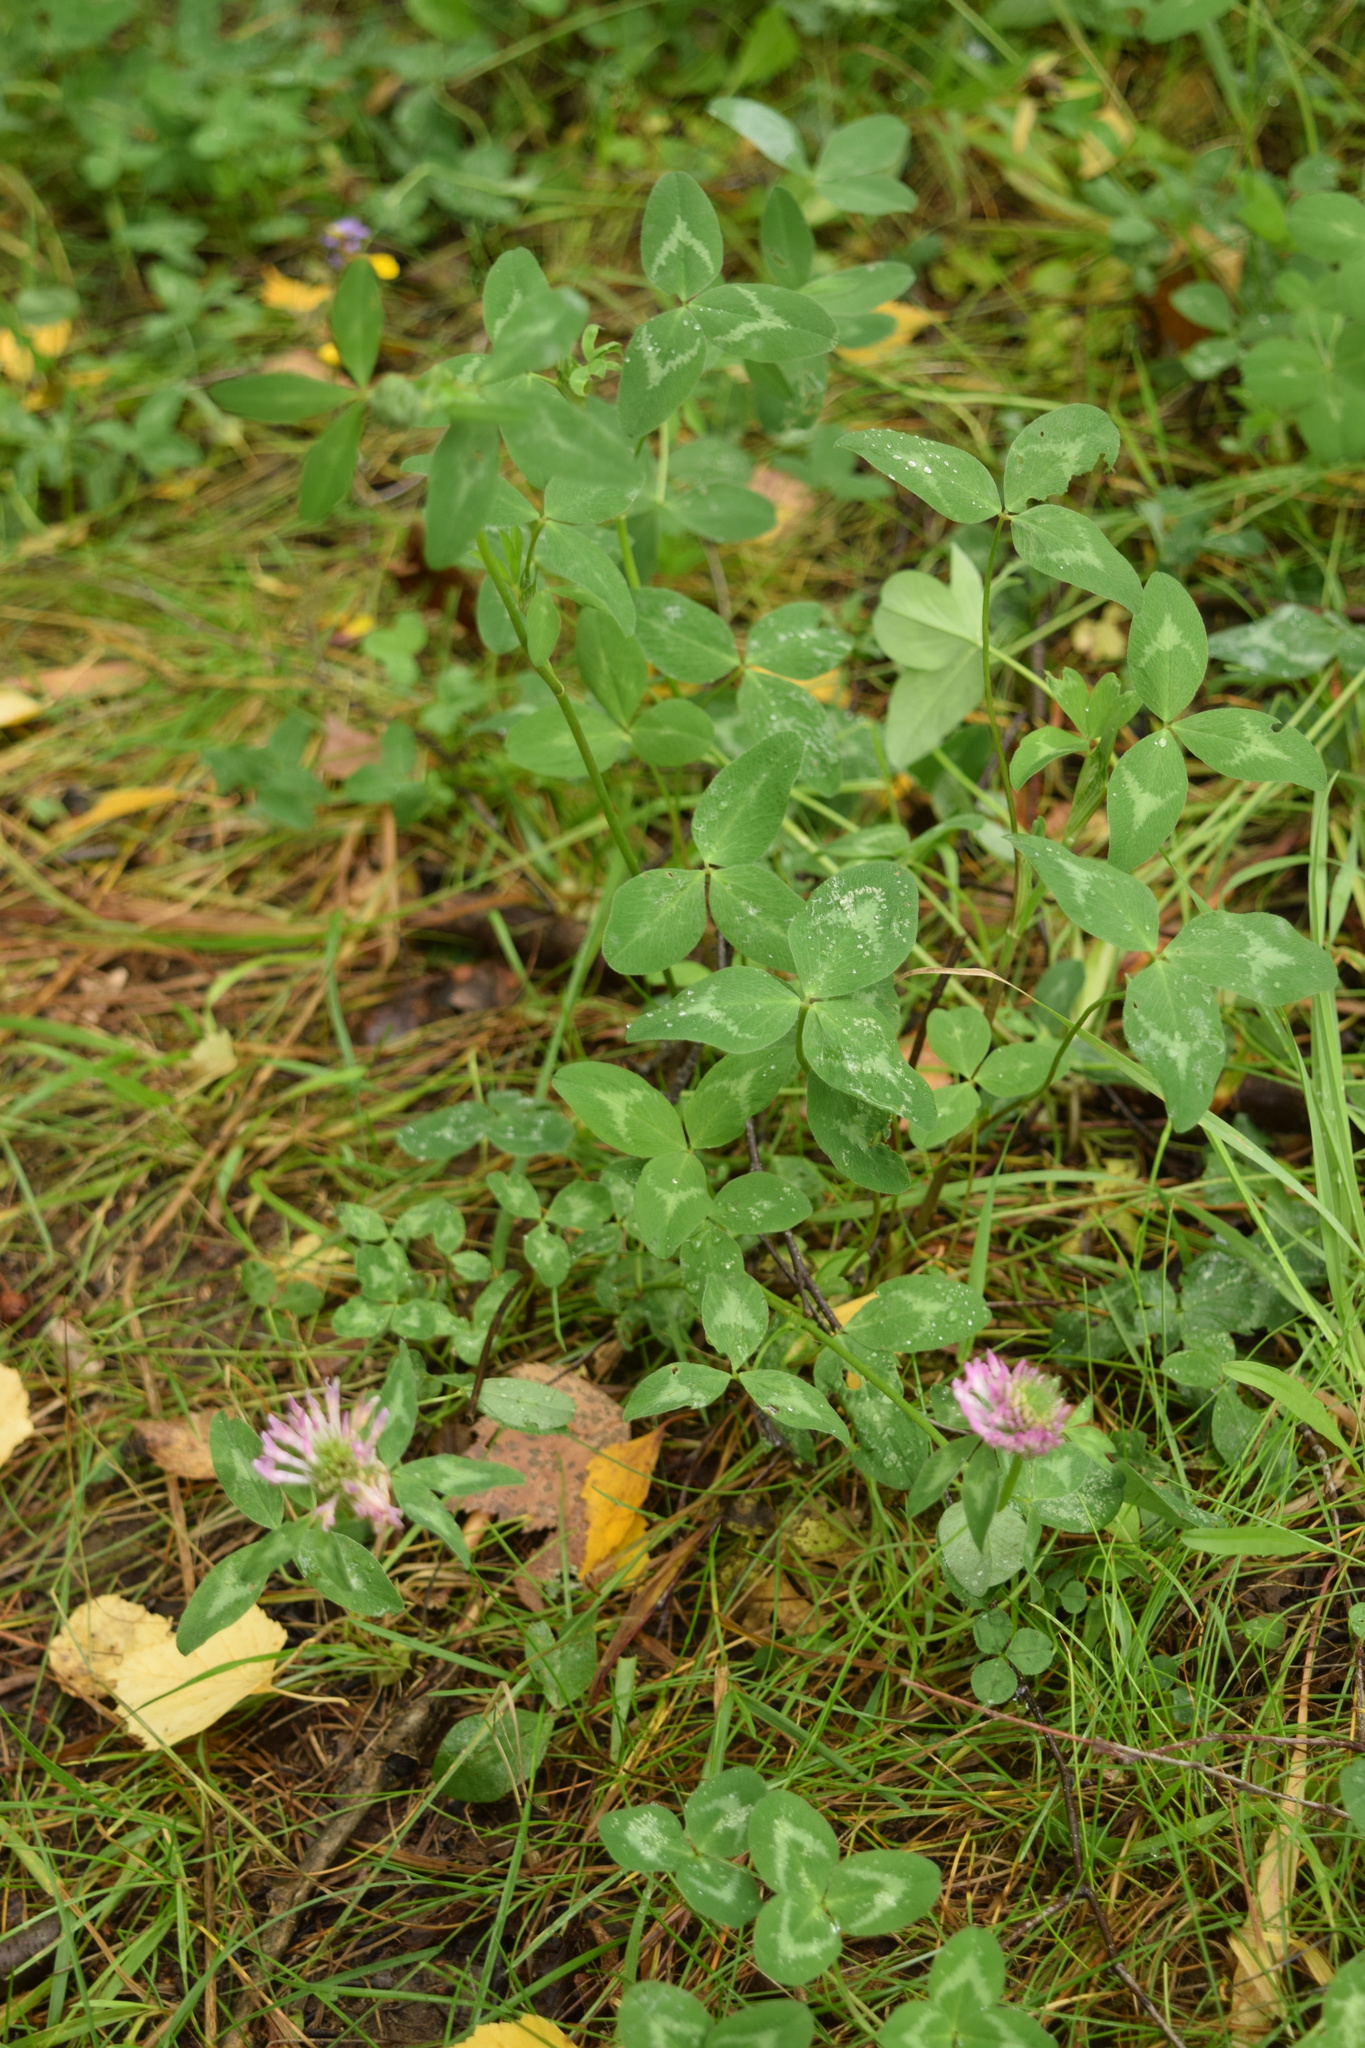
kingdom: Plantae
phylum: Tracheophyta
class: Magnoliopsida
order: Fabales
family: Fabaceae
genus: Trifolium
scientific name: Trifolium pratense
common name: Red clover
